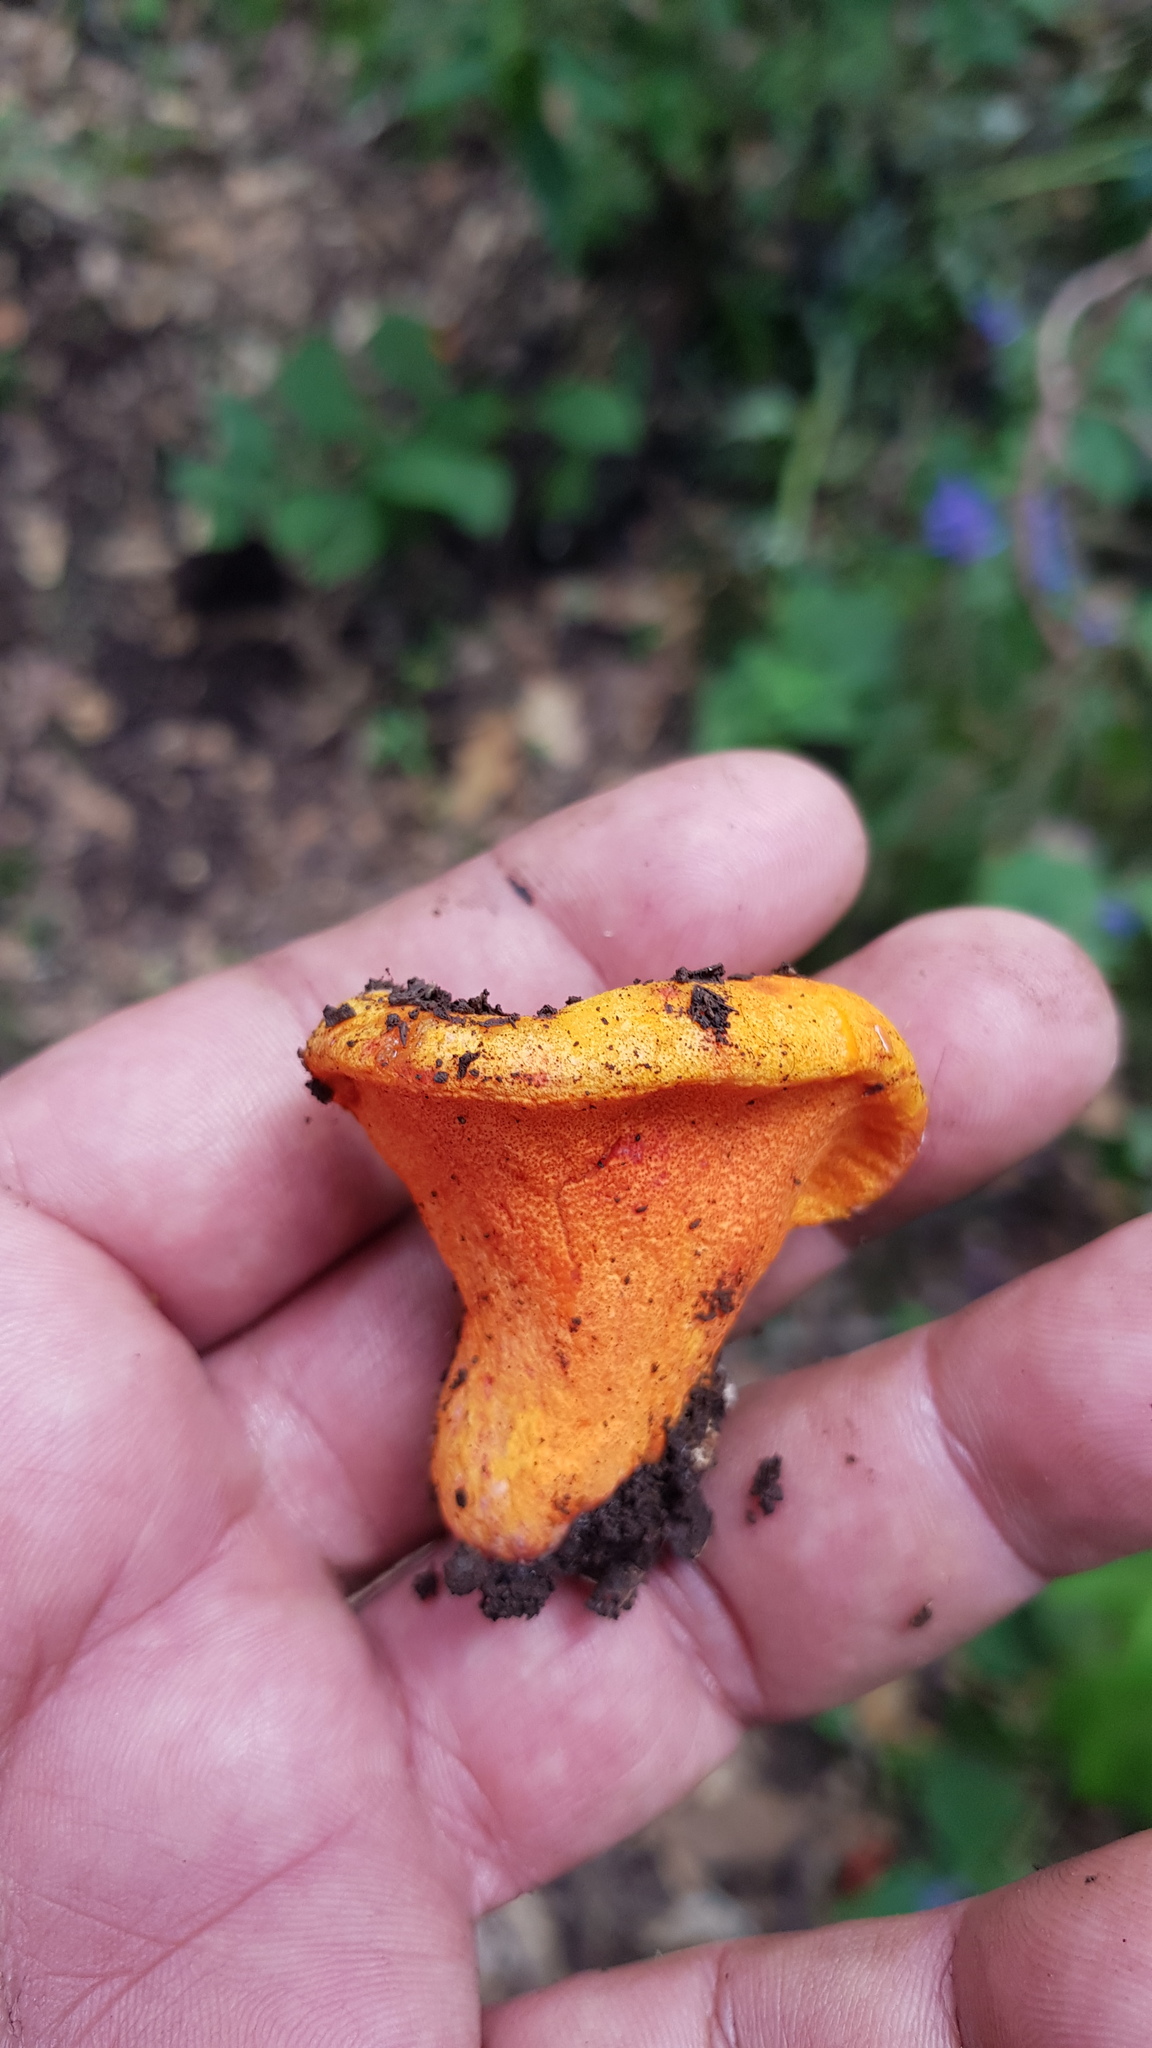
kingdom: Fungi
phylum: Ascomycota
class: Sordariomycetes
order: Hypocreales
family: Hypocreaceae
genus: Hypomyces
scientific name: Hypomyces lactifluorum
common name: Lobster mushroom
